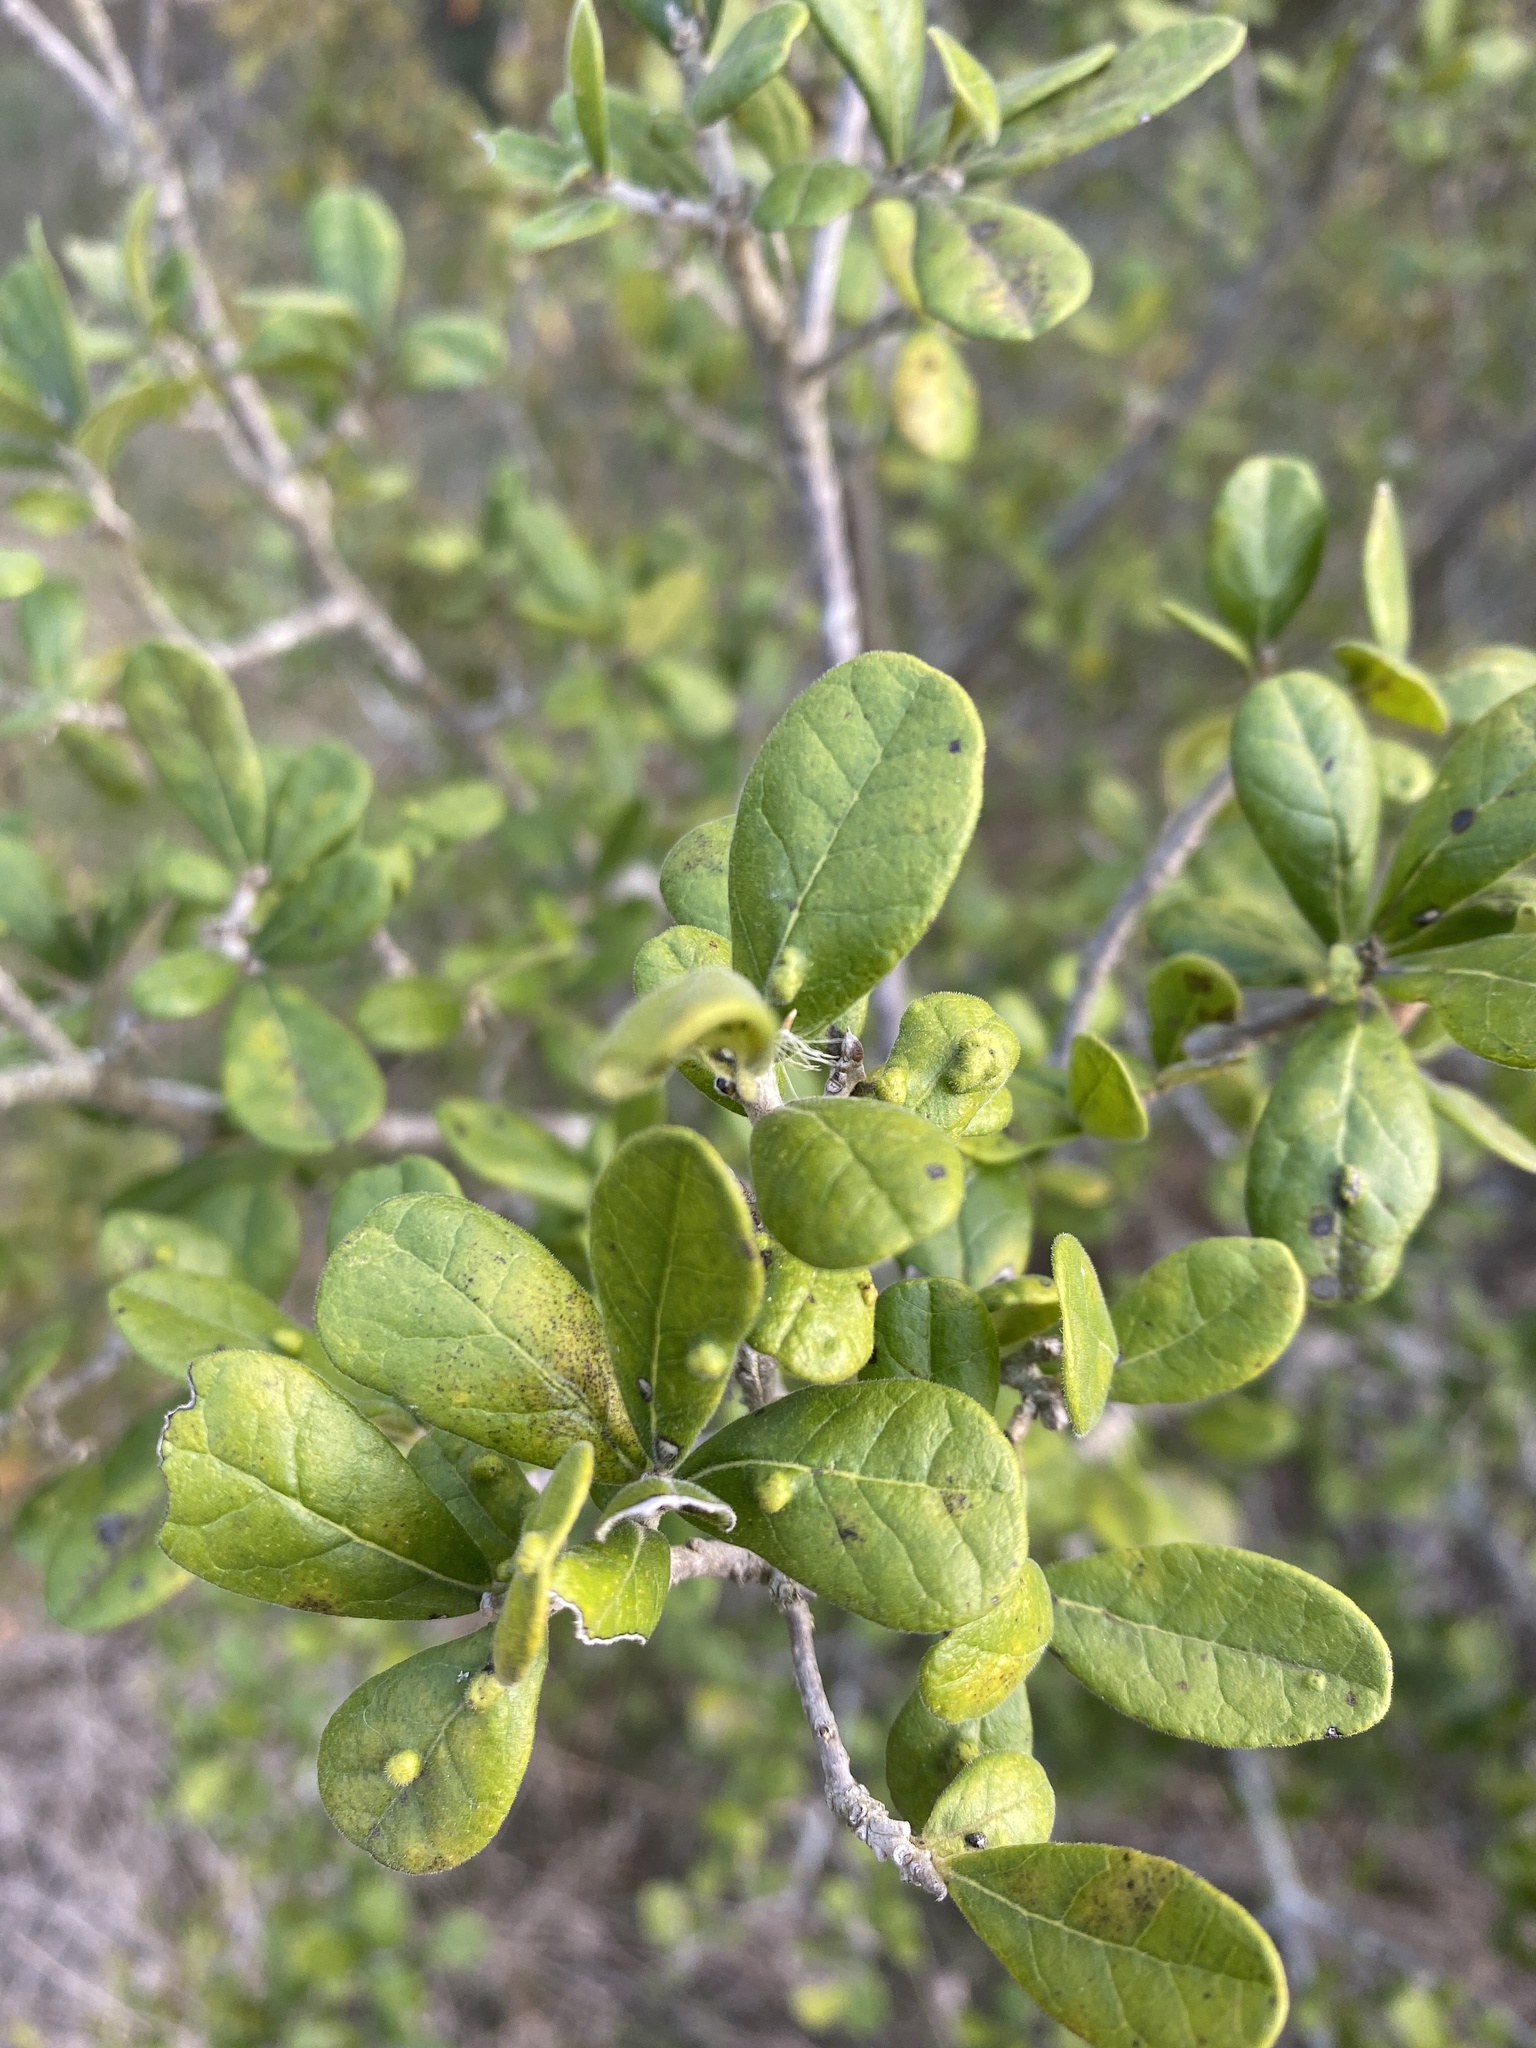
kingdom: Plantae
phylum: Tracheophyta
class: Magnoliopsida
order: Ericales
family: Ebenaceae
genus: Diospyros
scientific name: Diospyros texana
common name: Texas persimmon
